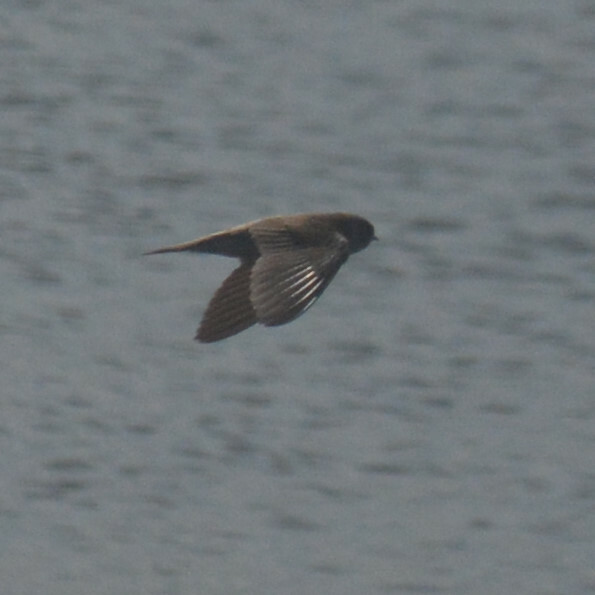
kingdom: Animalia
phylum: Chordata
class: Aves
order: Passeriformes
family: Hirundinidae
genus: Riparia
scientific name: Riparia riparia
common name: Sand martin
